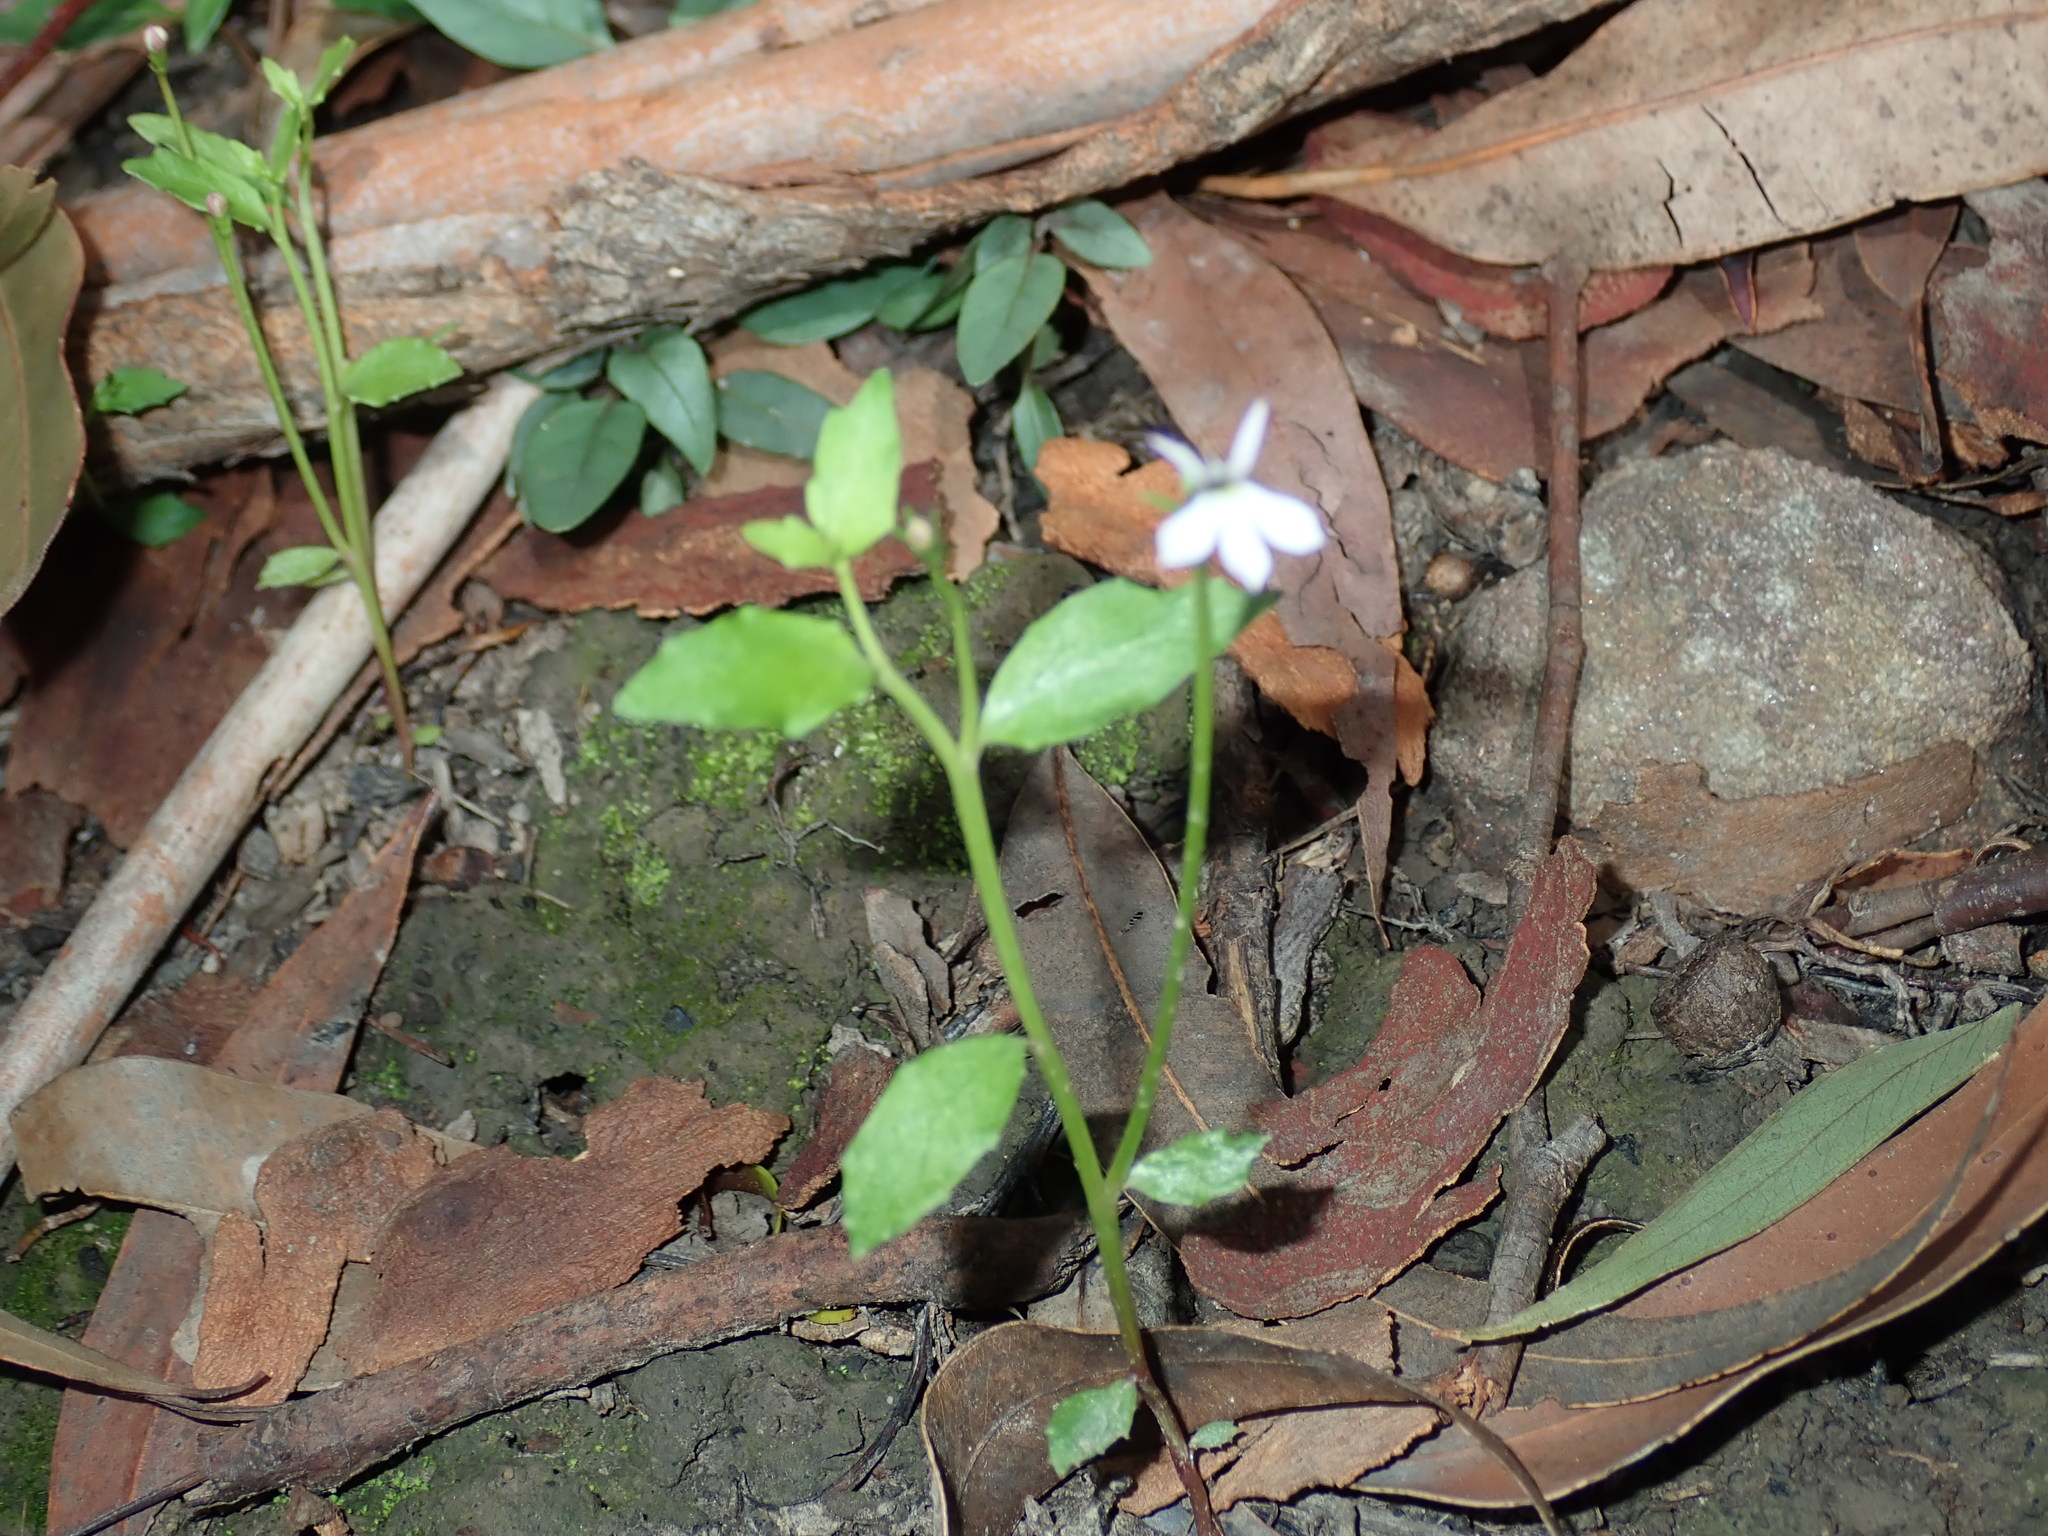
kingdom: Plantae
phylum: Tracheophyta
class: Magnoliopsida
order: Asterales
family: Campanulaceae
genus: Lobelia
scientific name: Lobelia purpurascens
